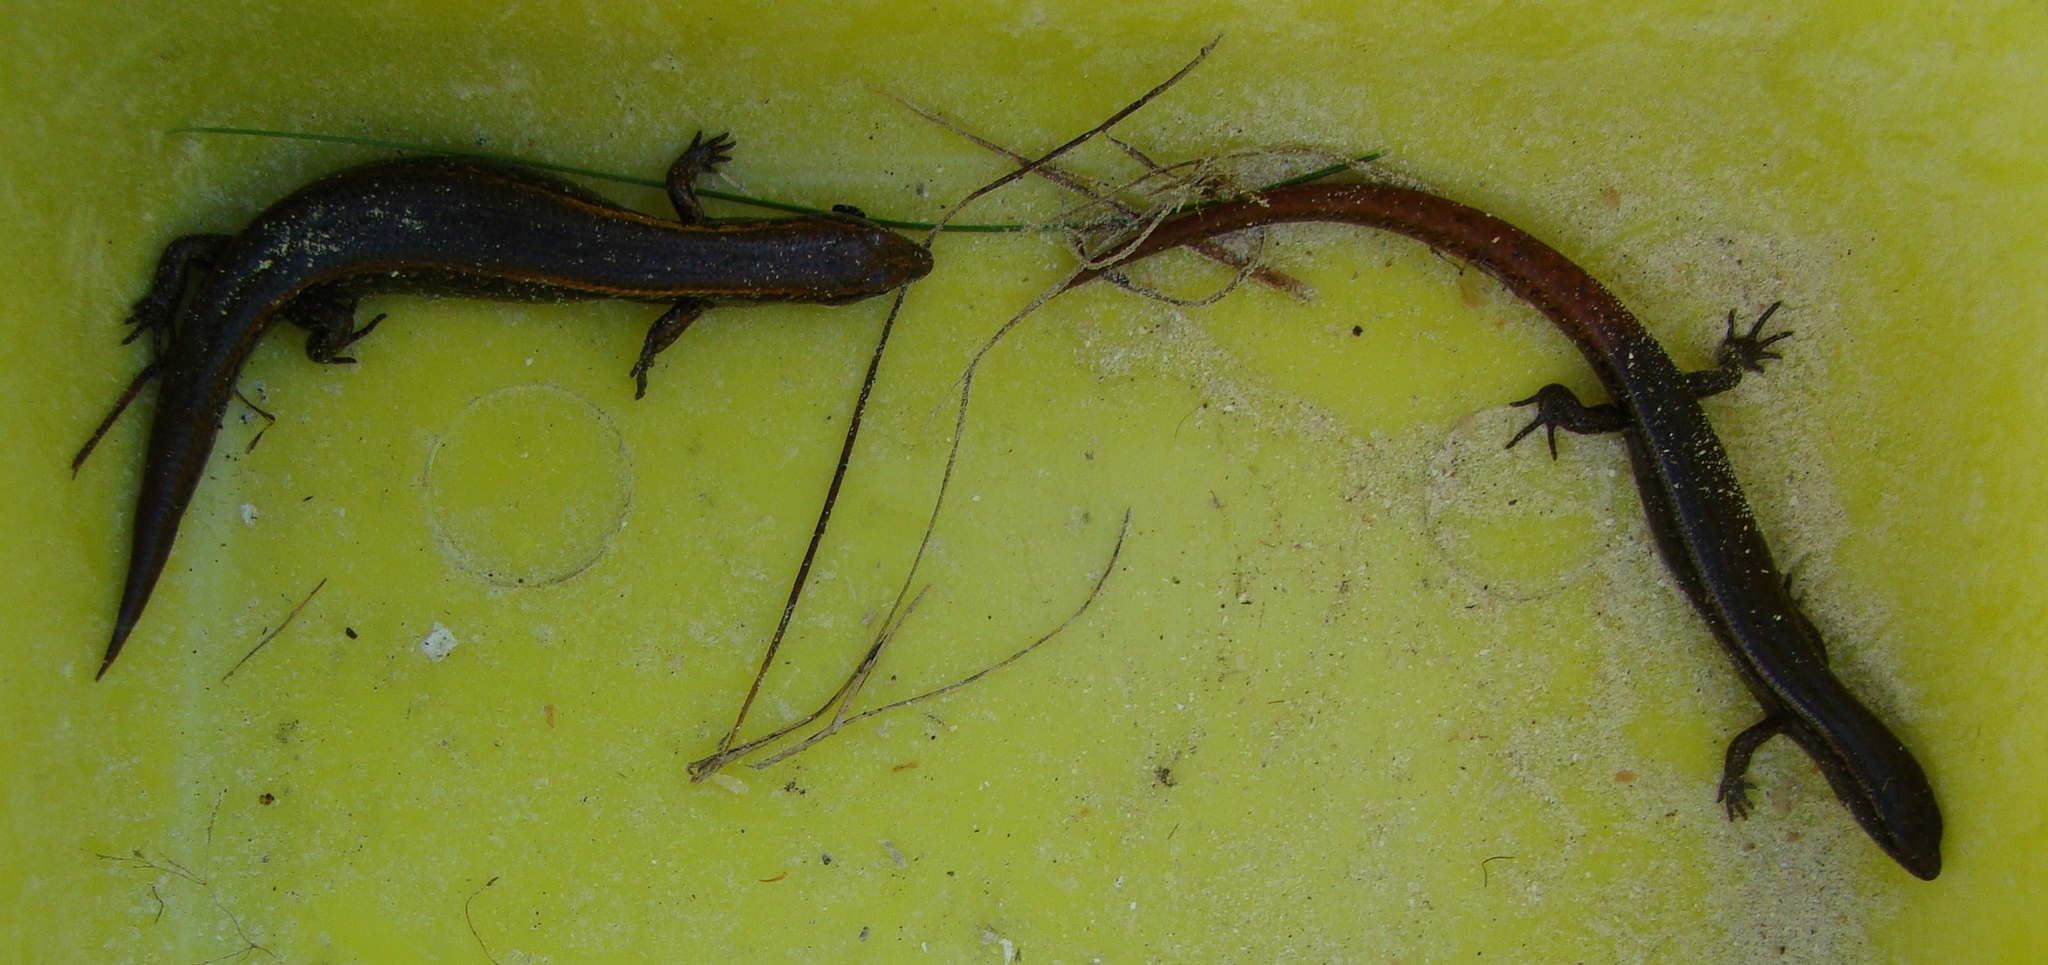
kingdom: Animalia
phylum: Chordata
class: Squamata
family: Scincidae
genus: Oligosoma
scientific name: Oligosoma aeneum
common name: Copper skink
